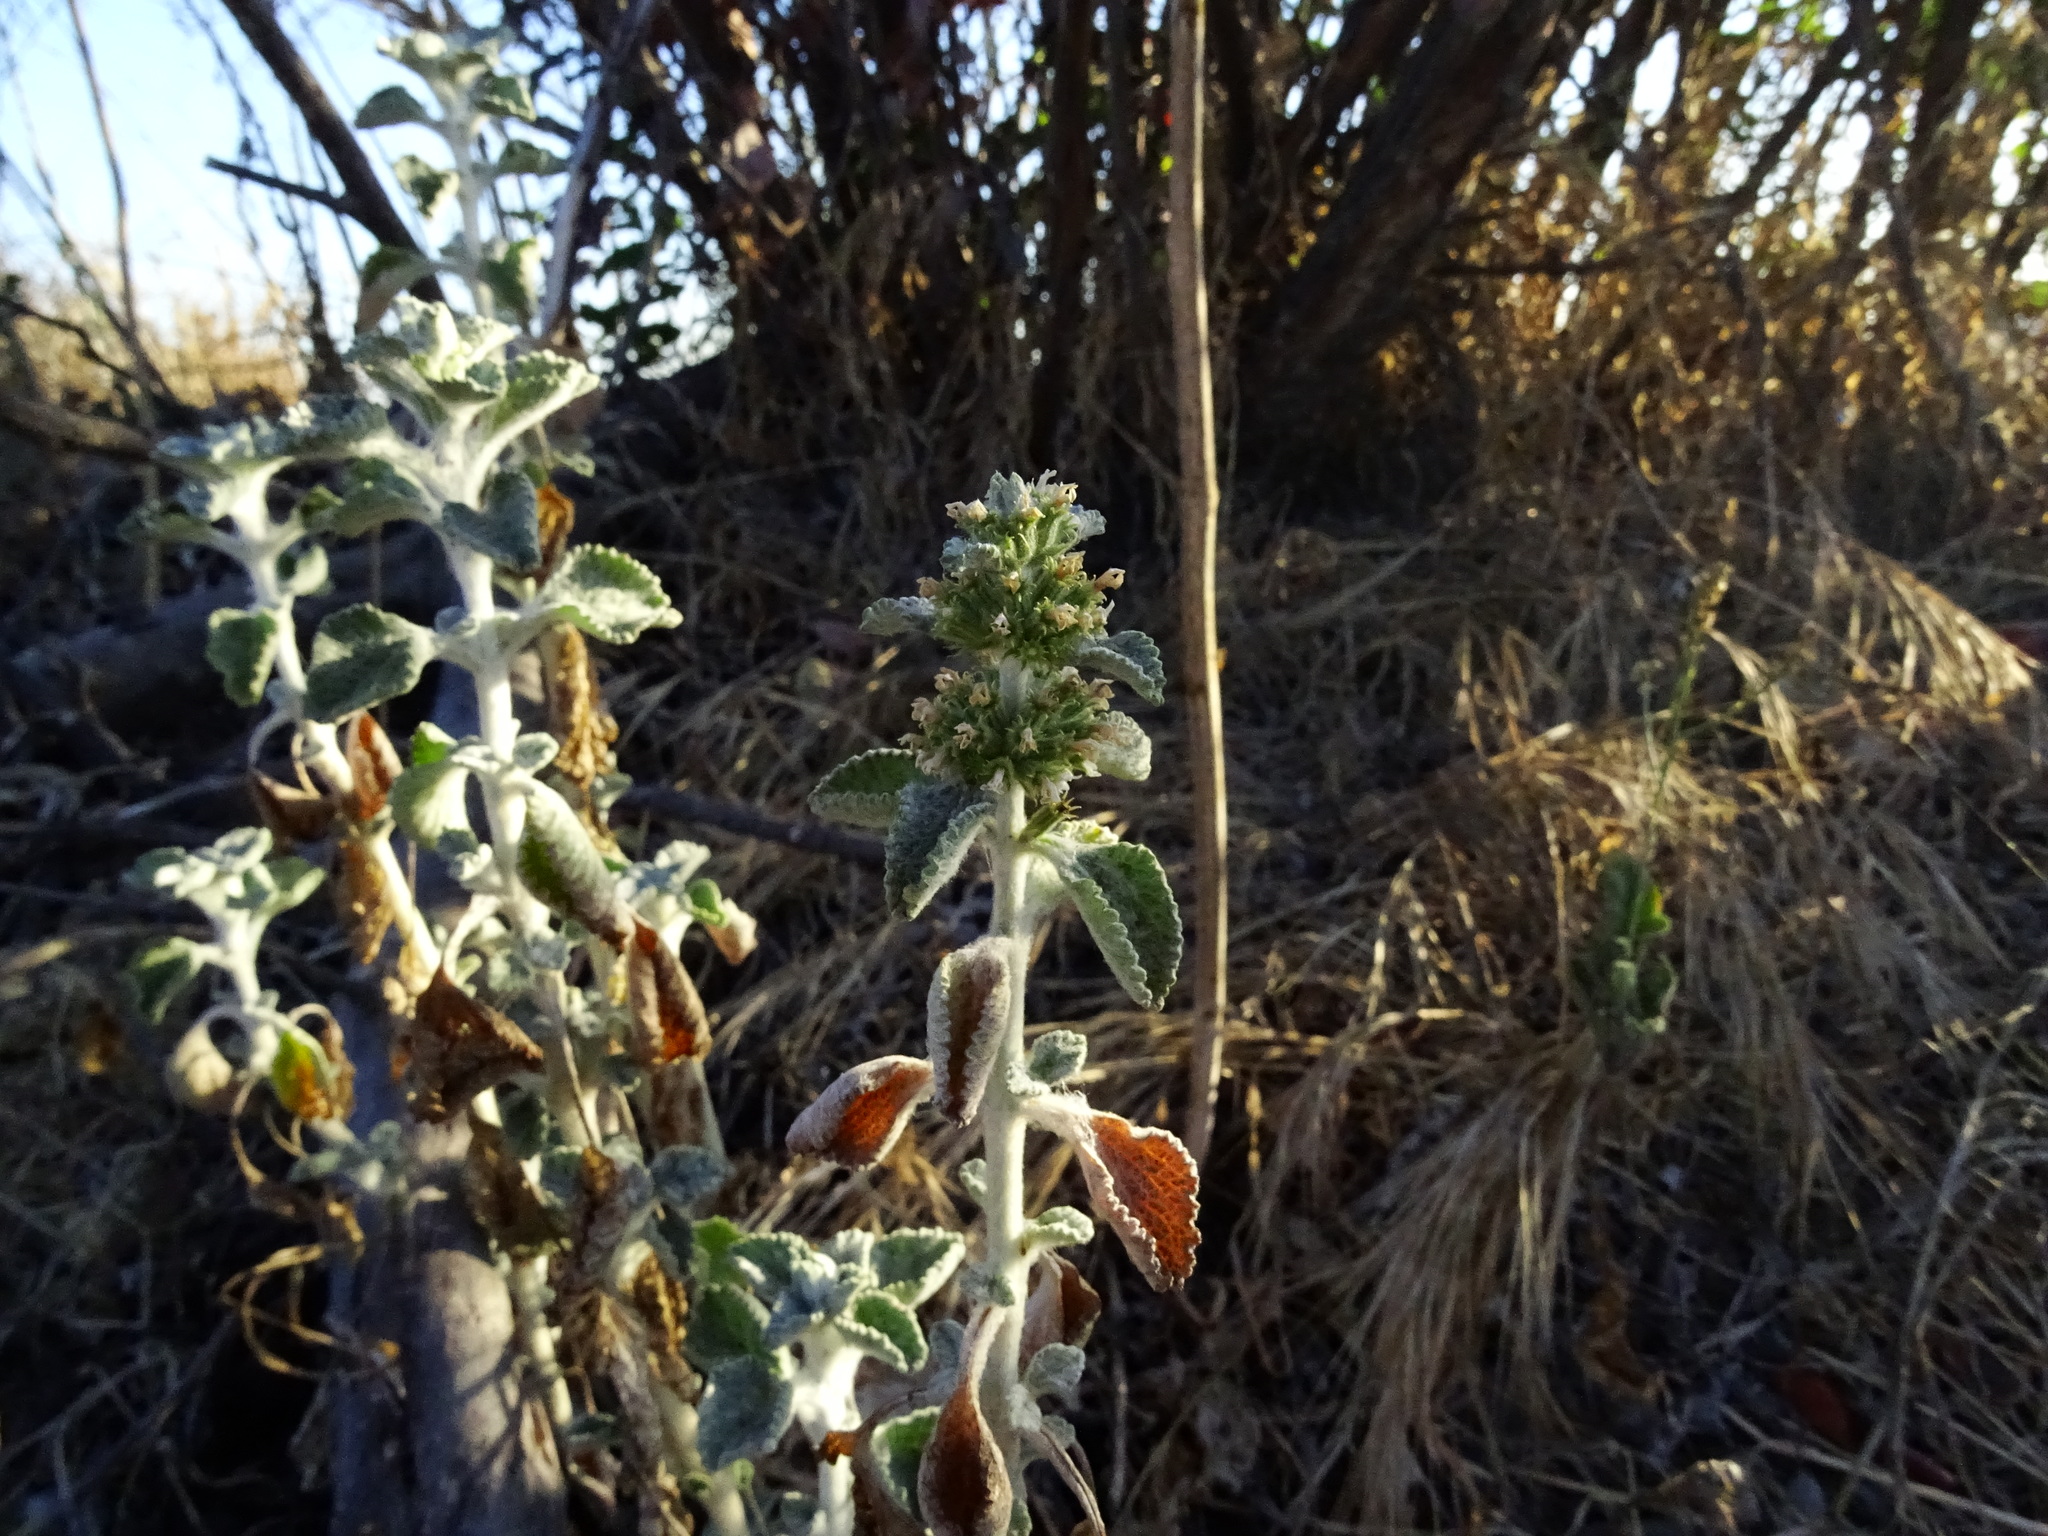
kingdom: Plantae
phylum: Tracheophyta
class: Magnoliopsida
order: Lamiales
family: Lamiaceae
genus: Marrubium
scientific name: Marrubium vulgare
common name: Horehound
